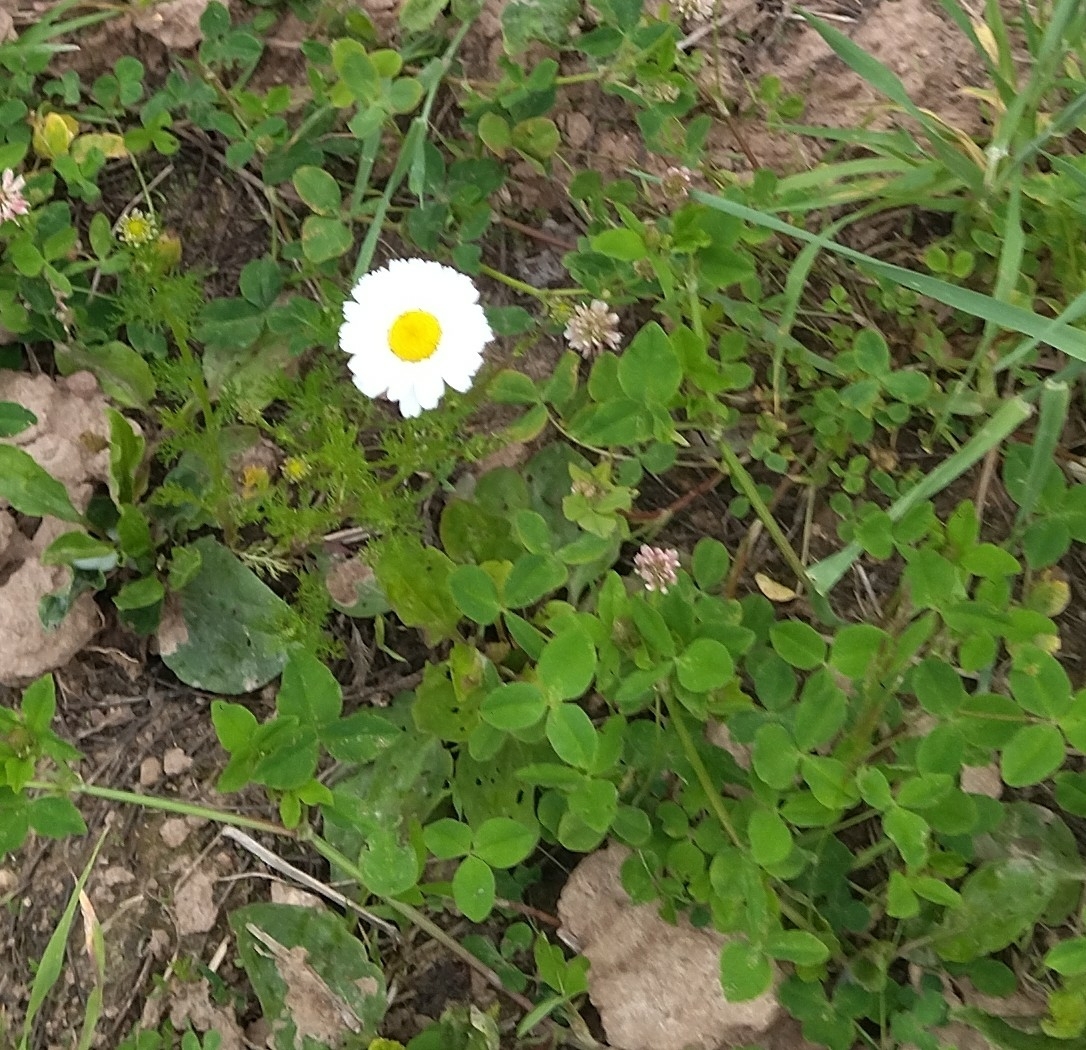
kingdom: Plantae
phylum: Tracheophyta
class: Magnoliopsida
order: Asterales
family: Asteraceae
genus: Tripleurospermum
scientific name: Tripleurospermum inodorum
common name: Scentless mayweed
